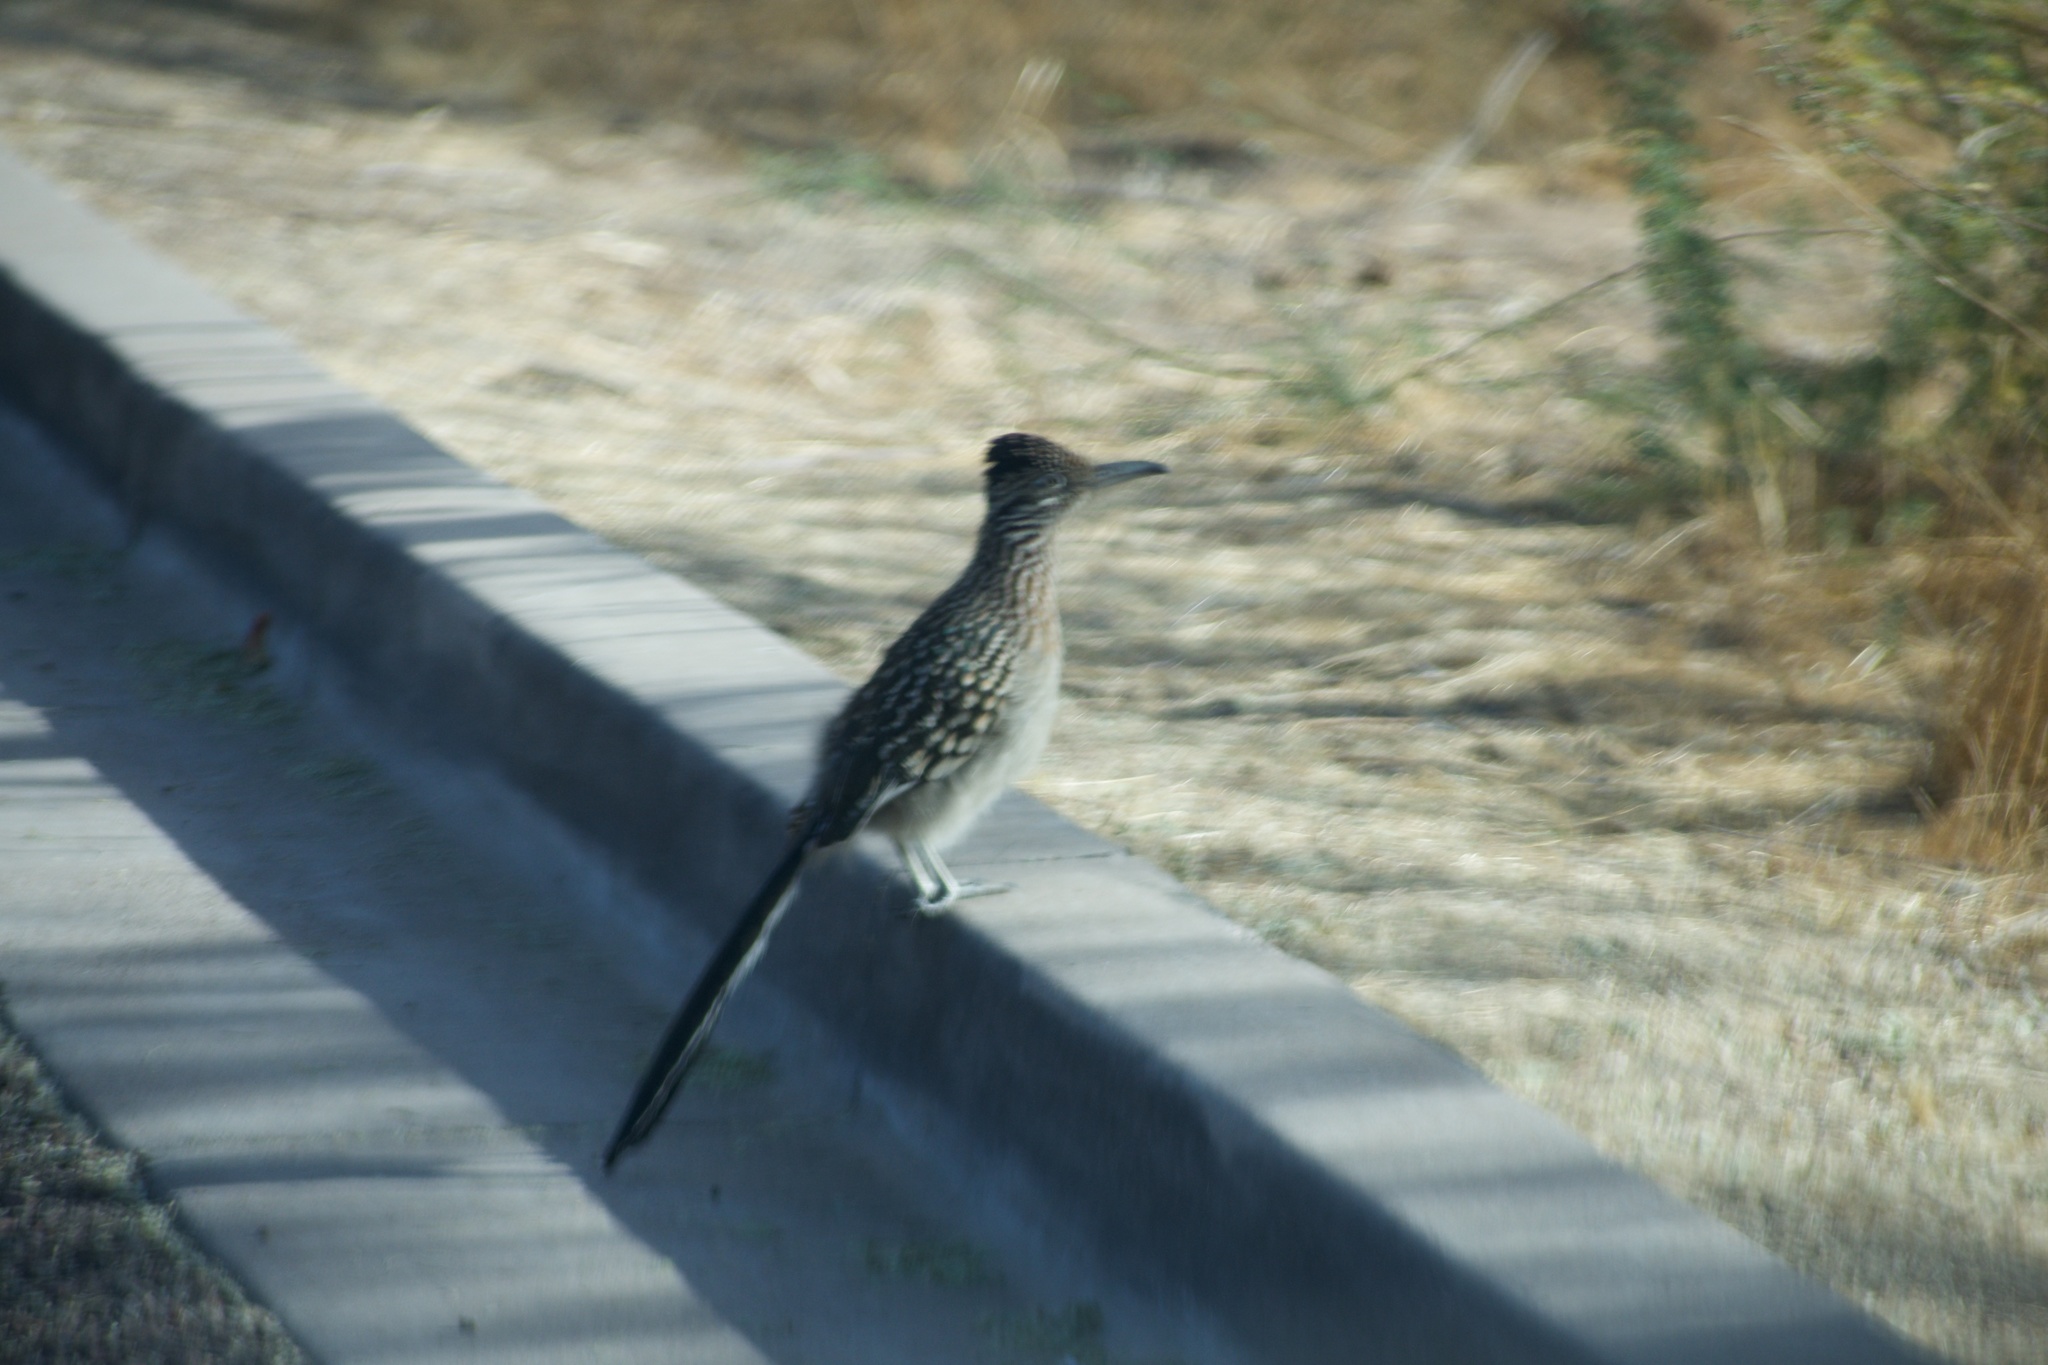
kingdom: Animalia
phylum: Chordata
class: Aves
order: Cuculiformes
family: Cuculidae
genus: Geococcyx
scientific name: Geococcyx californianus
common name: Greater roadrunner
